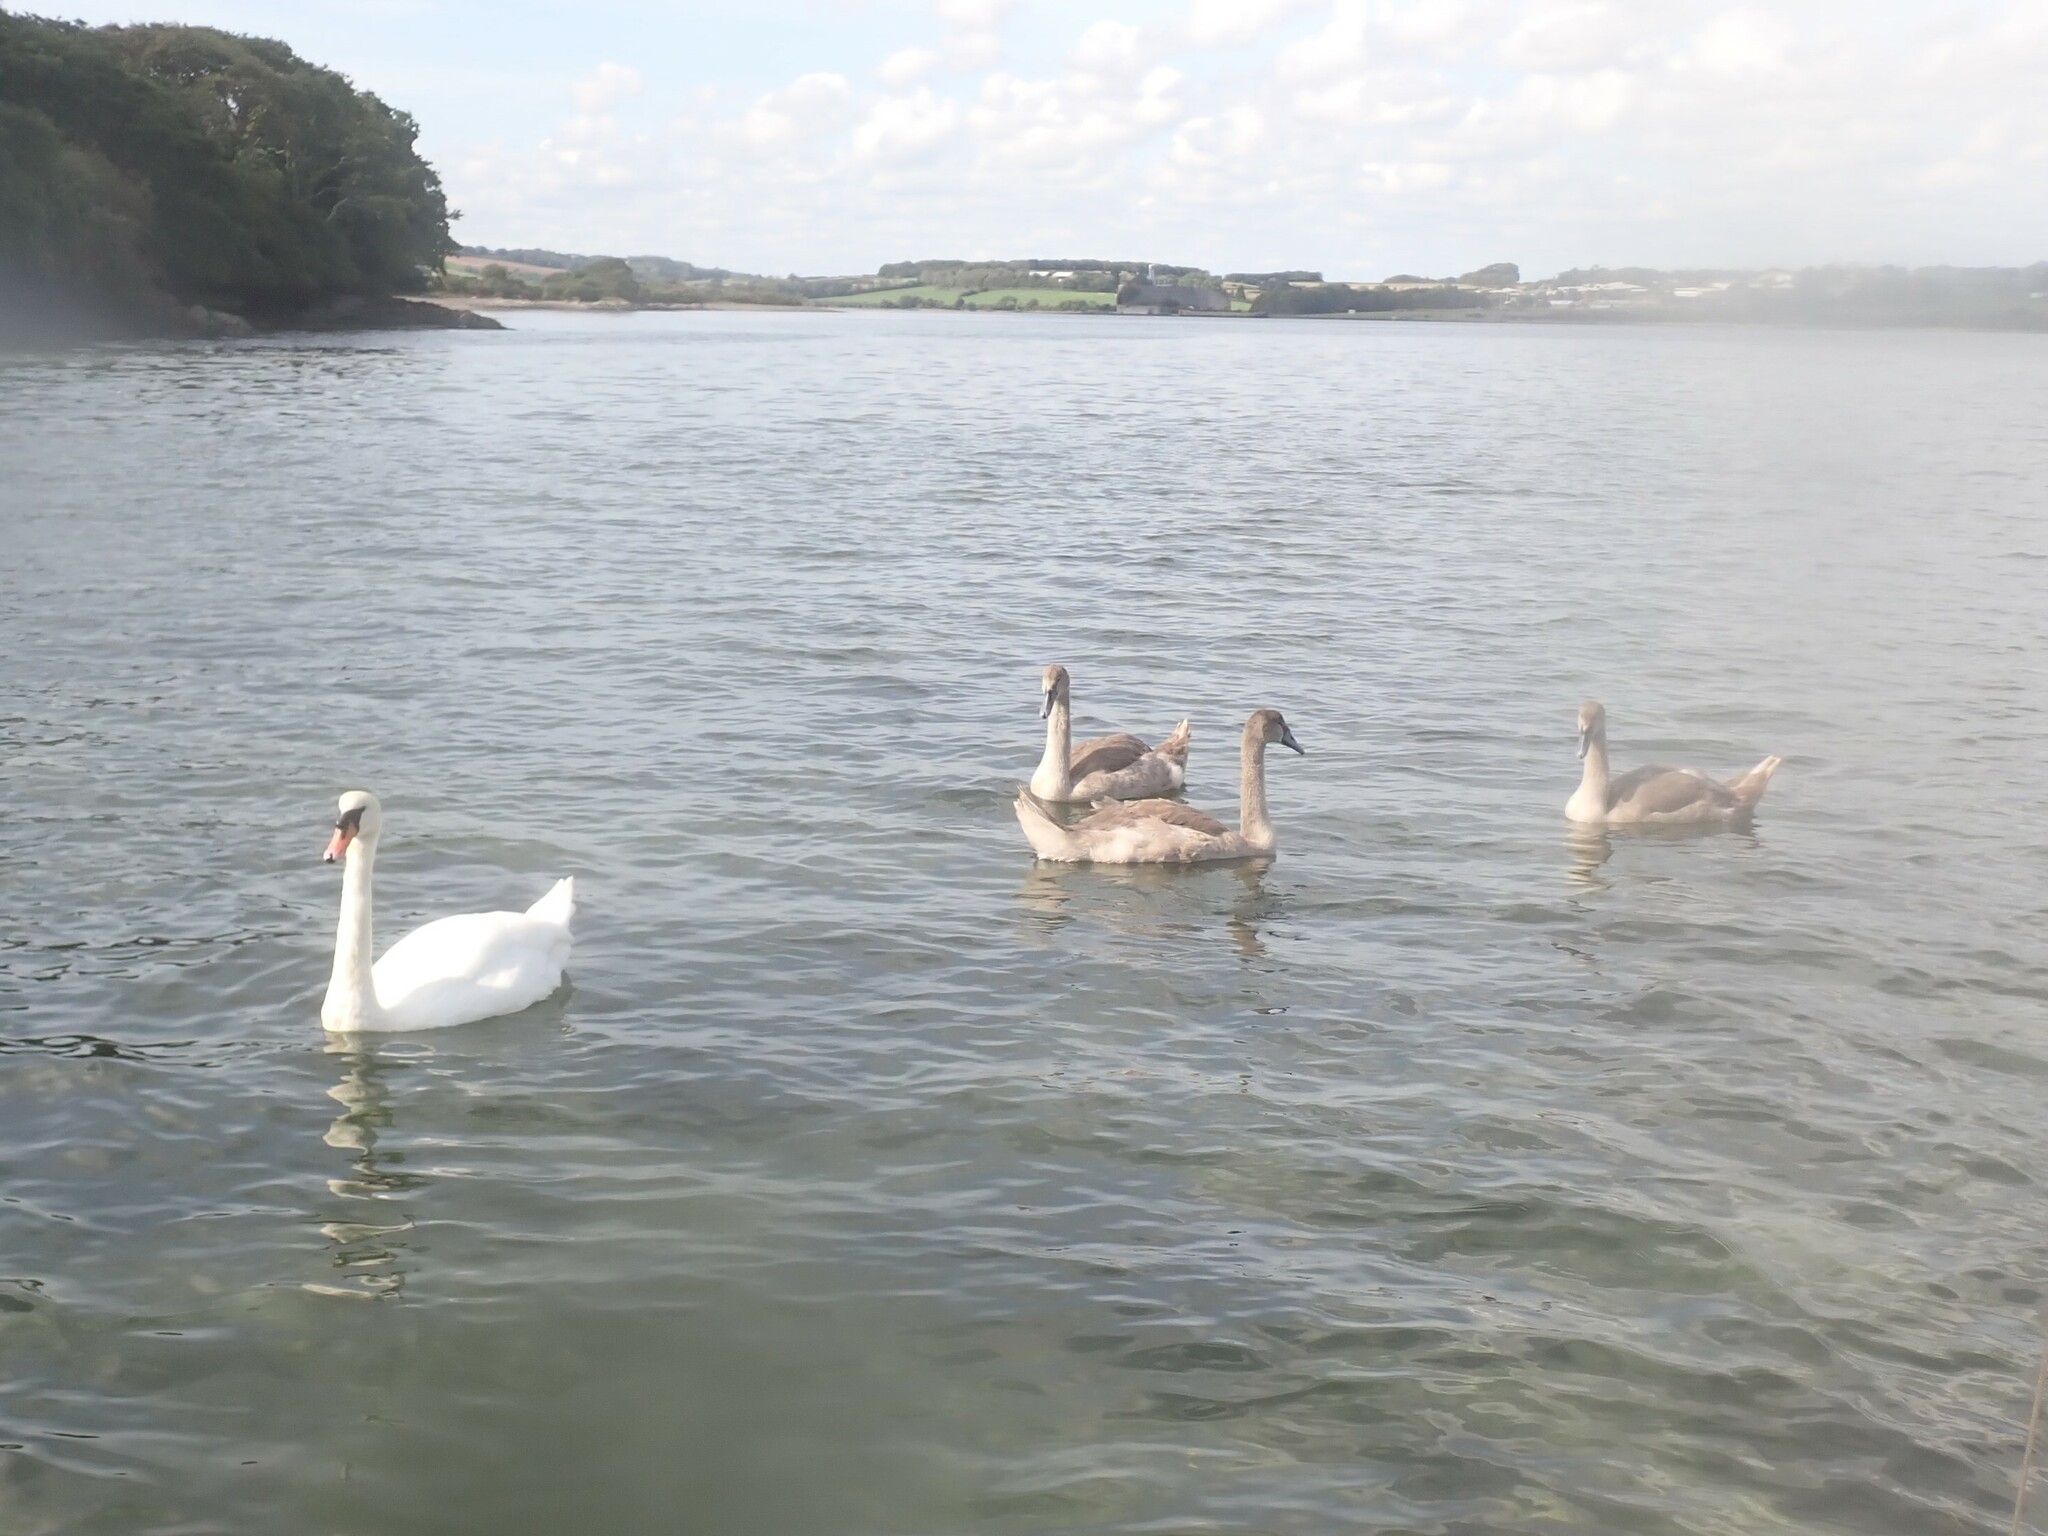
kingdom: Animalia
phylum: Chordata
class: Aves
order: Anseriformes
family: Anatidae
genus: Cygnus
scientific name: Cygnus olor
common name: Mute swan
